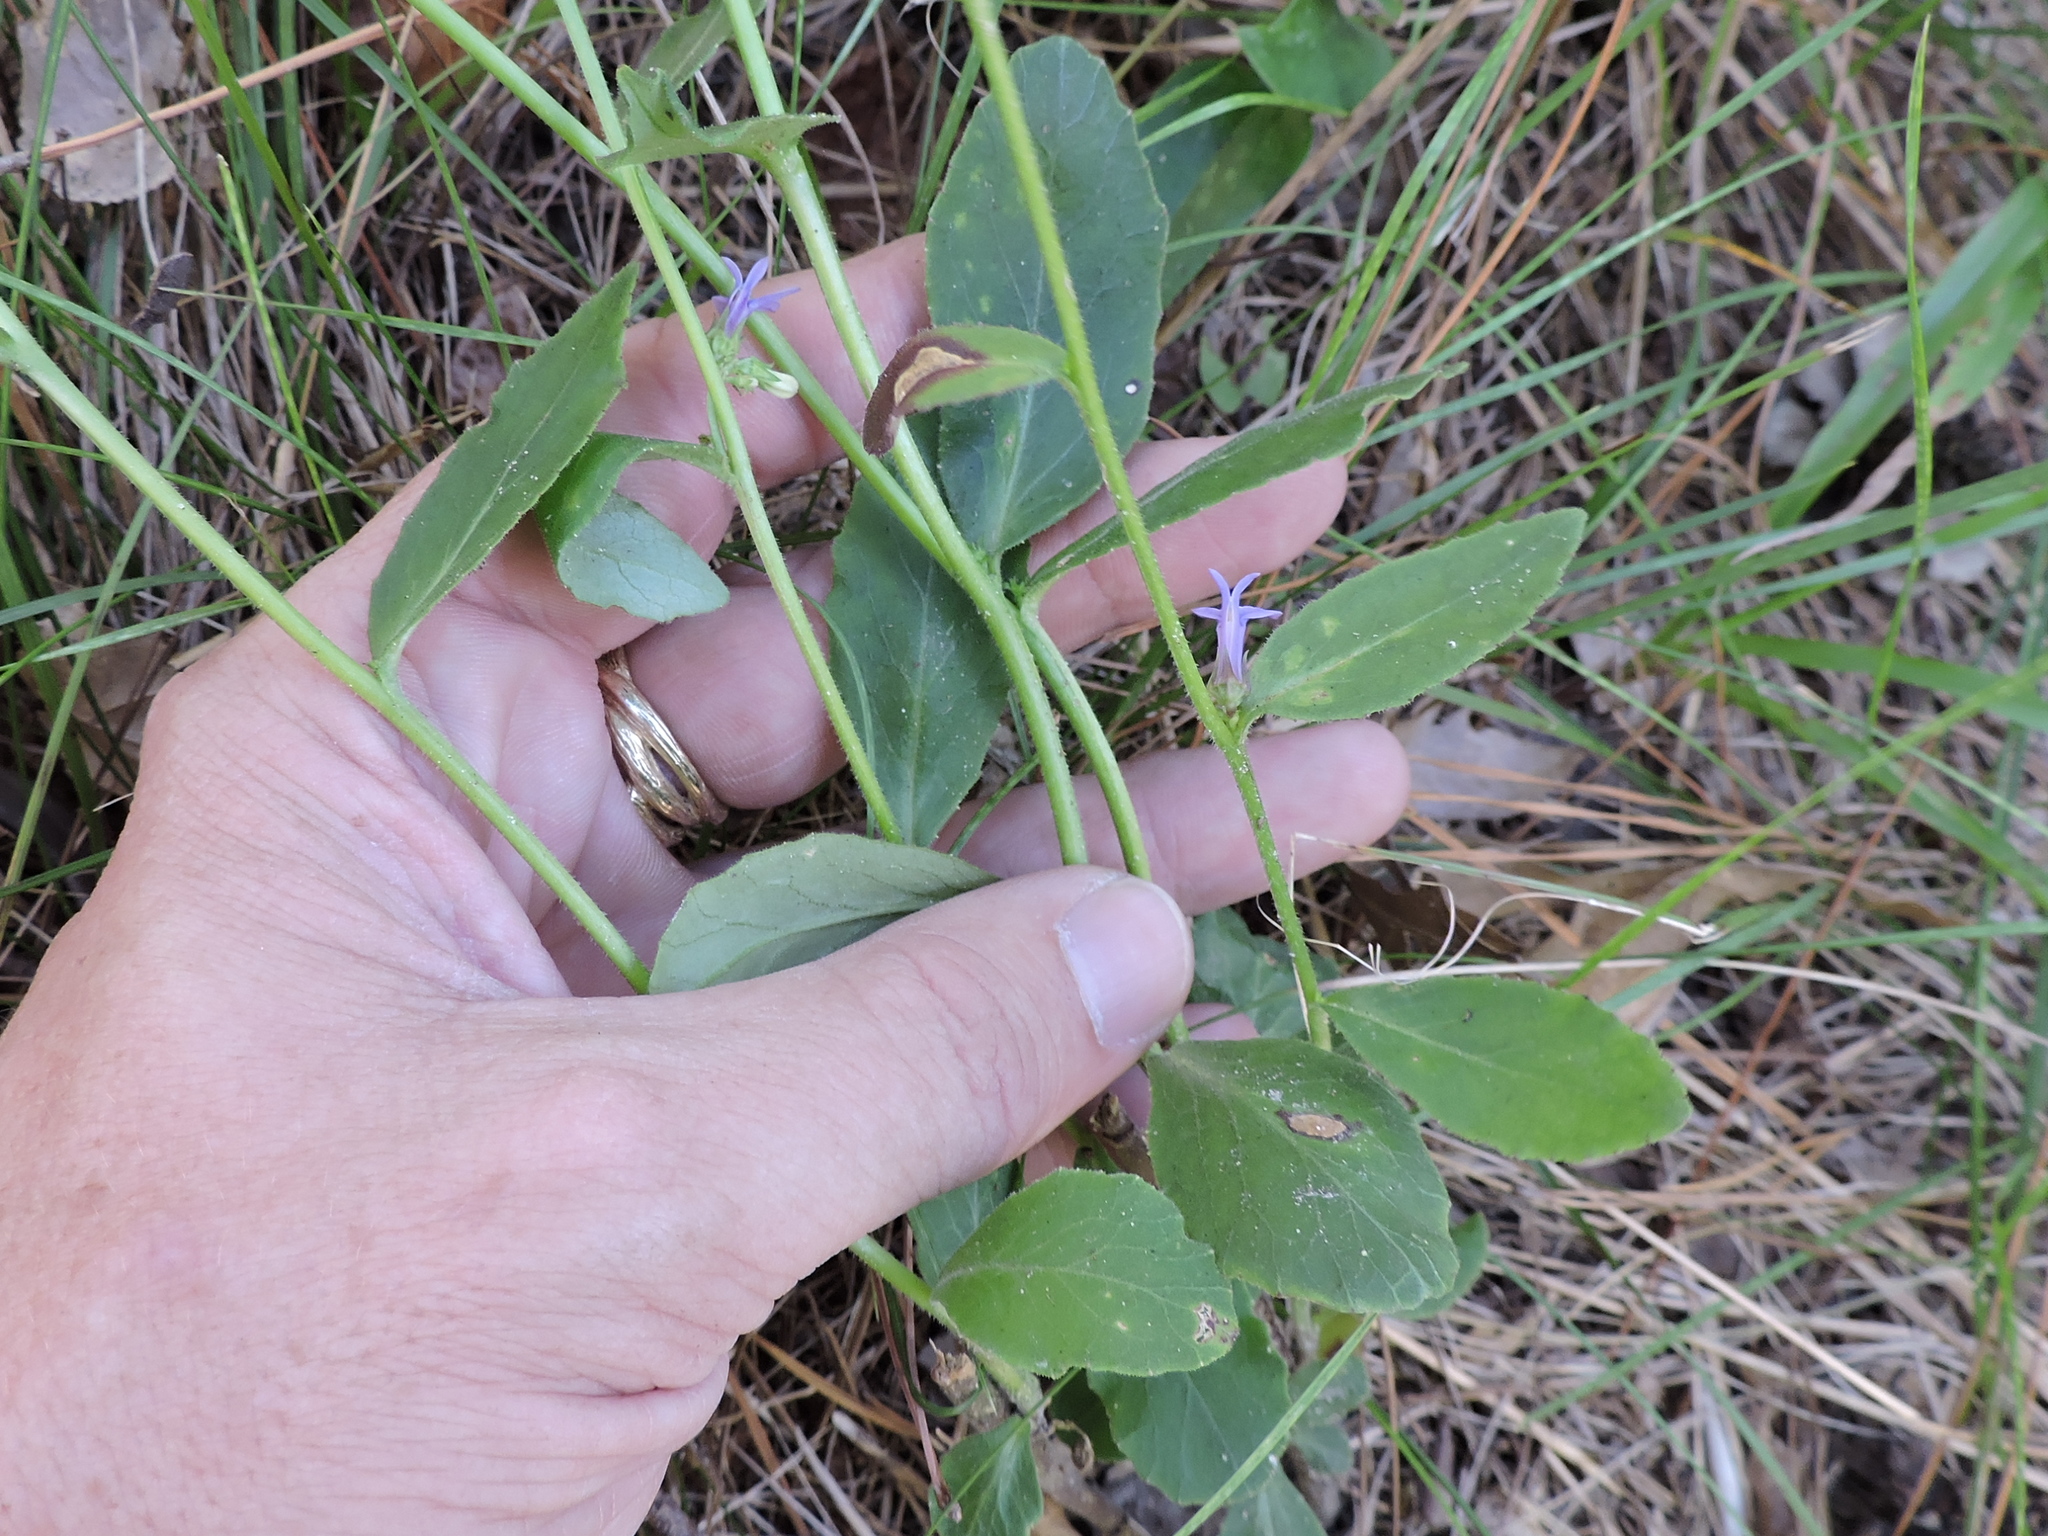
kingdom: Plantae
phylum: Tracheophyta
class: Magnoliopsida
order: Asterales
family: Campanulaceae
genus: Lobelia
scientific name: Lobelia puberula
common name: Purple dewdrop
